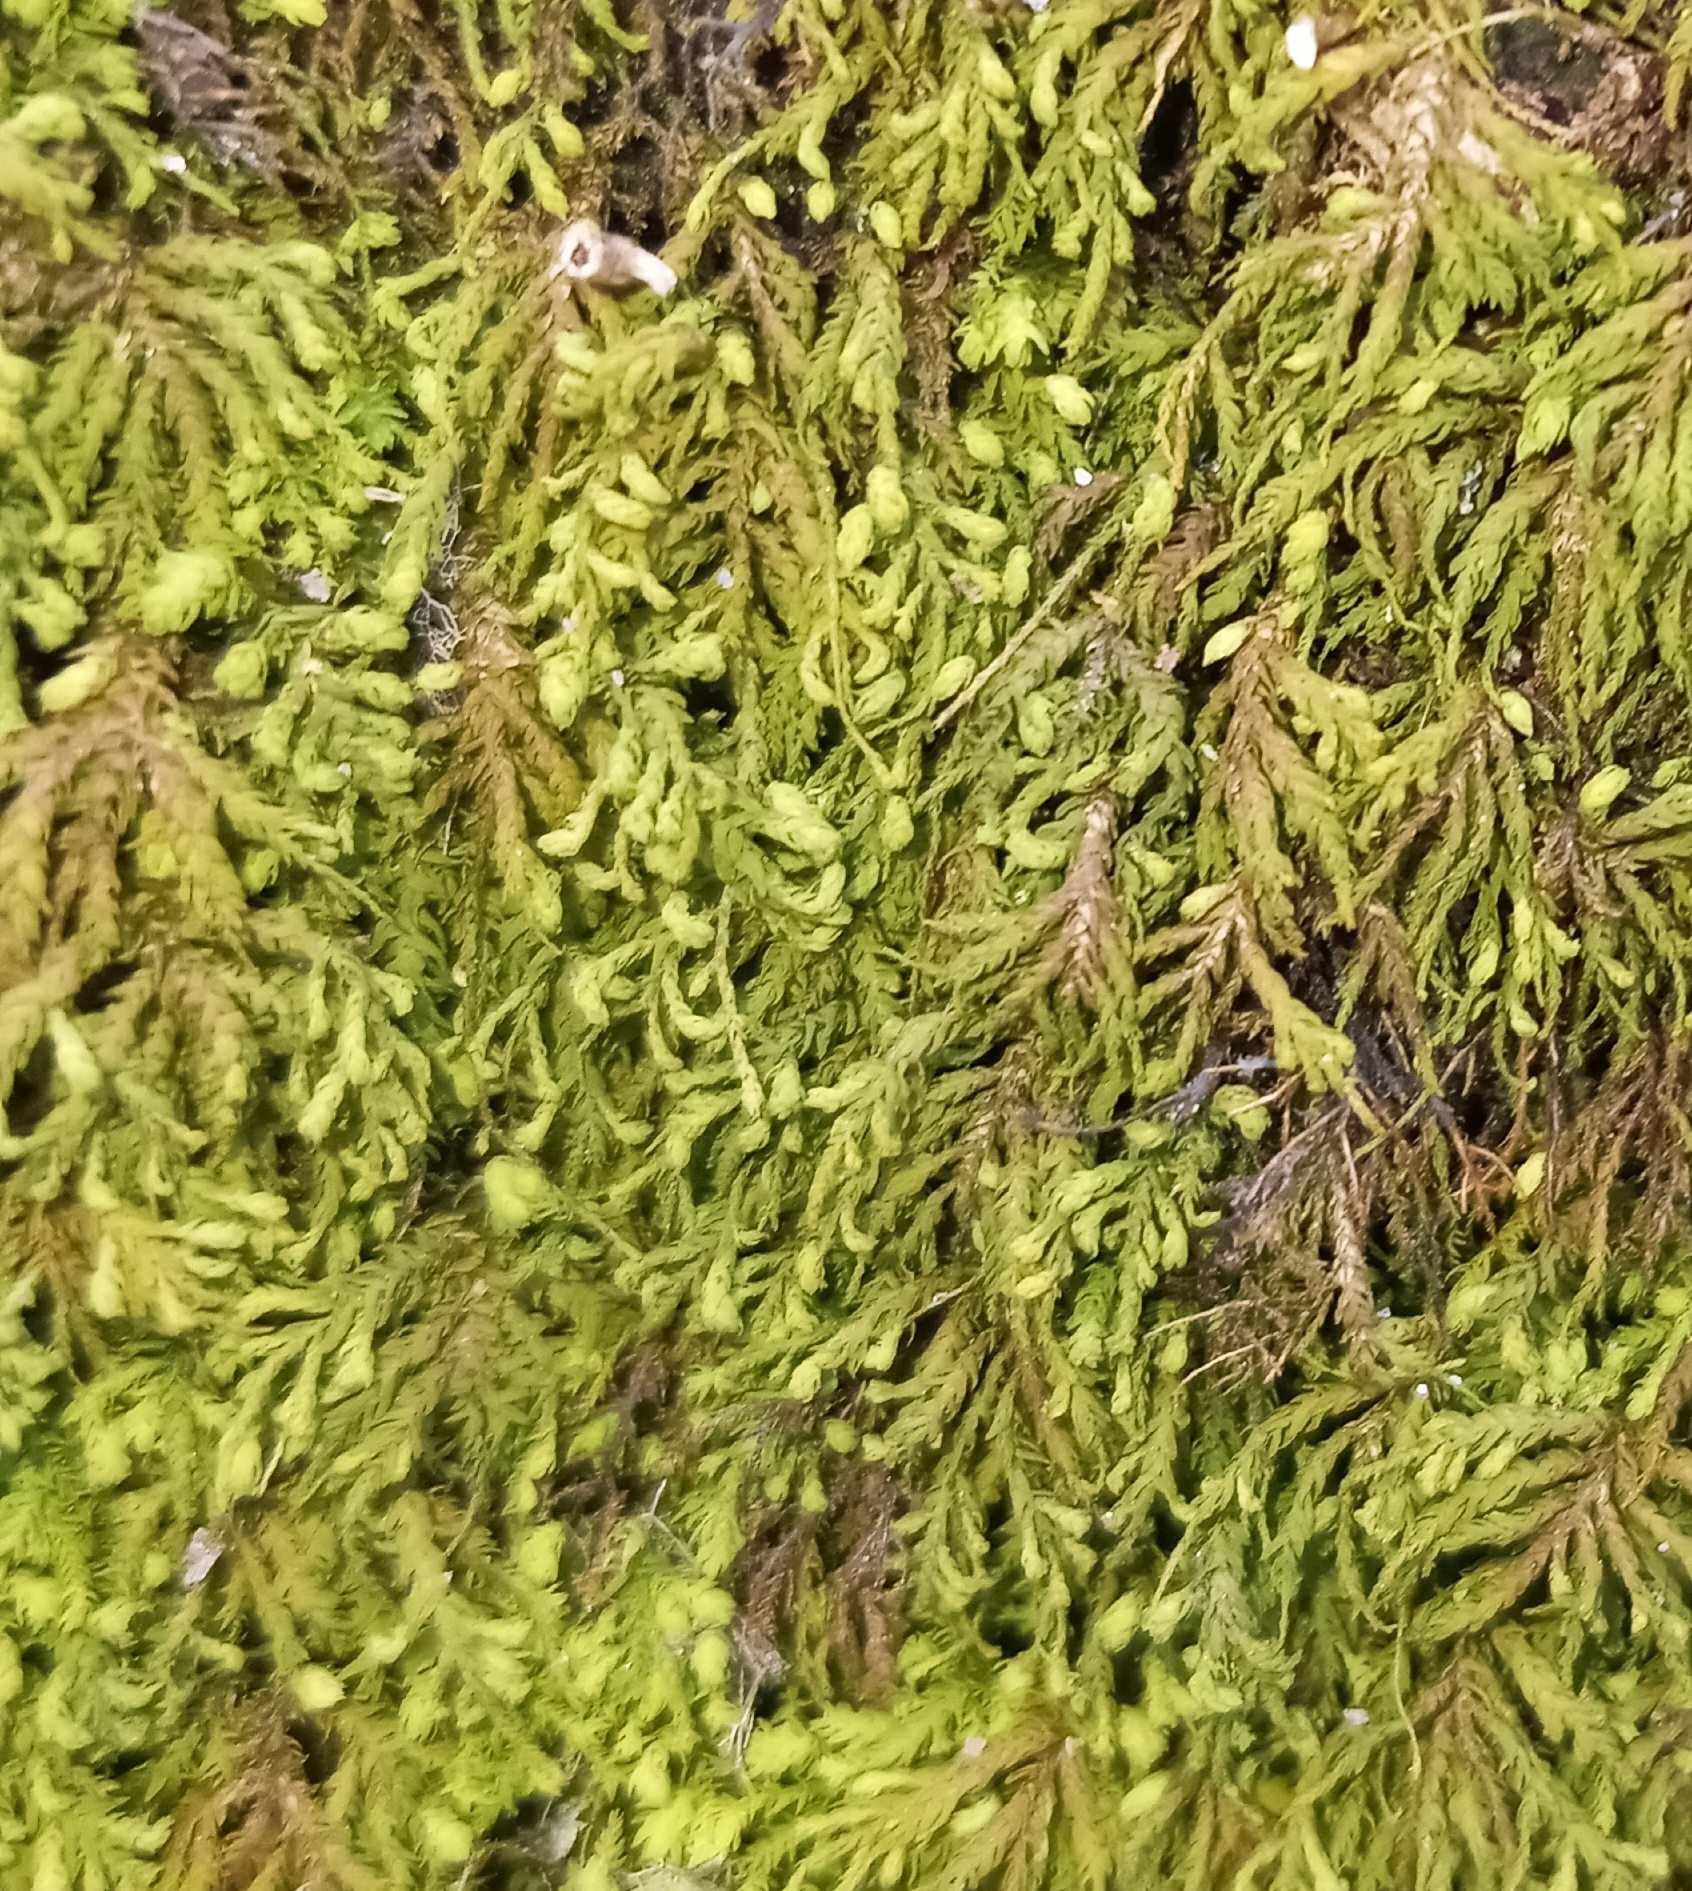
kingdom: Plantae
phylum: Bryophyta
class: Bryopsida
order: Hypnales
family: Neckeraceae
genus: Pseudanomodon
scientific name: Pseudanomodon attenuatus
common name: Tree-skirt moss
